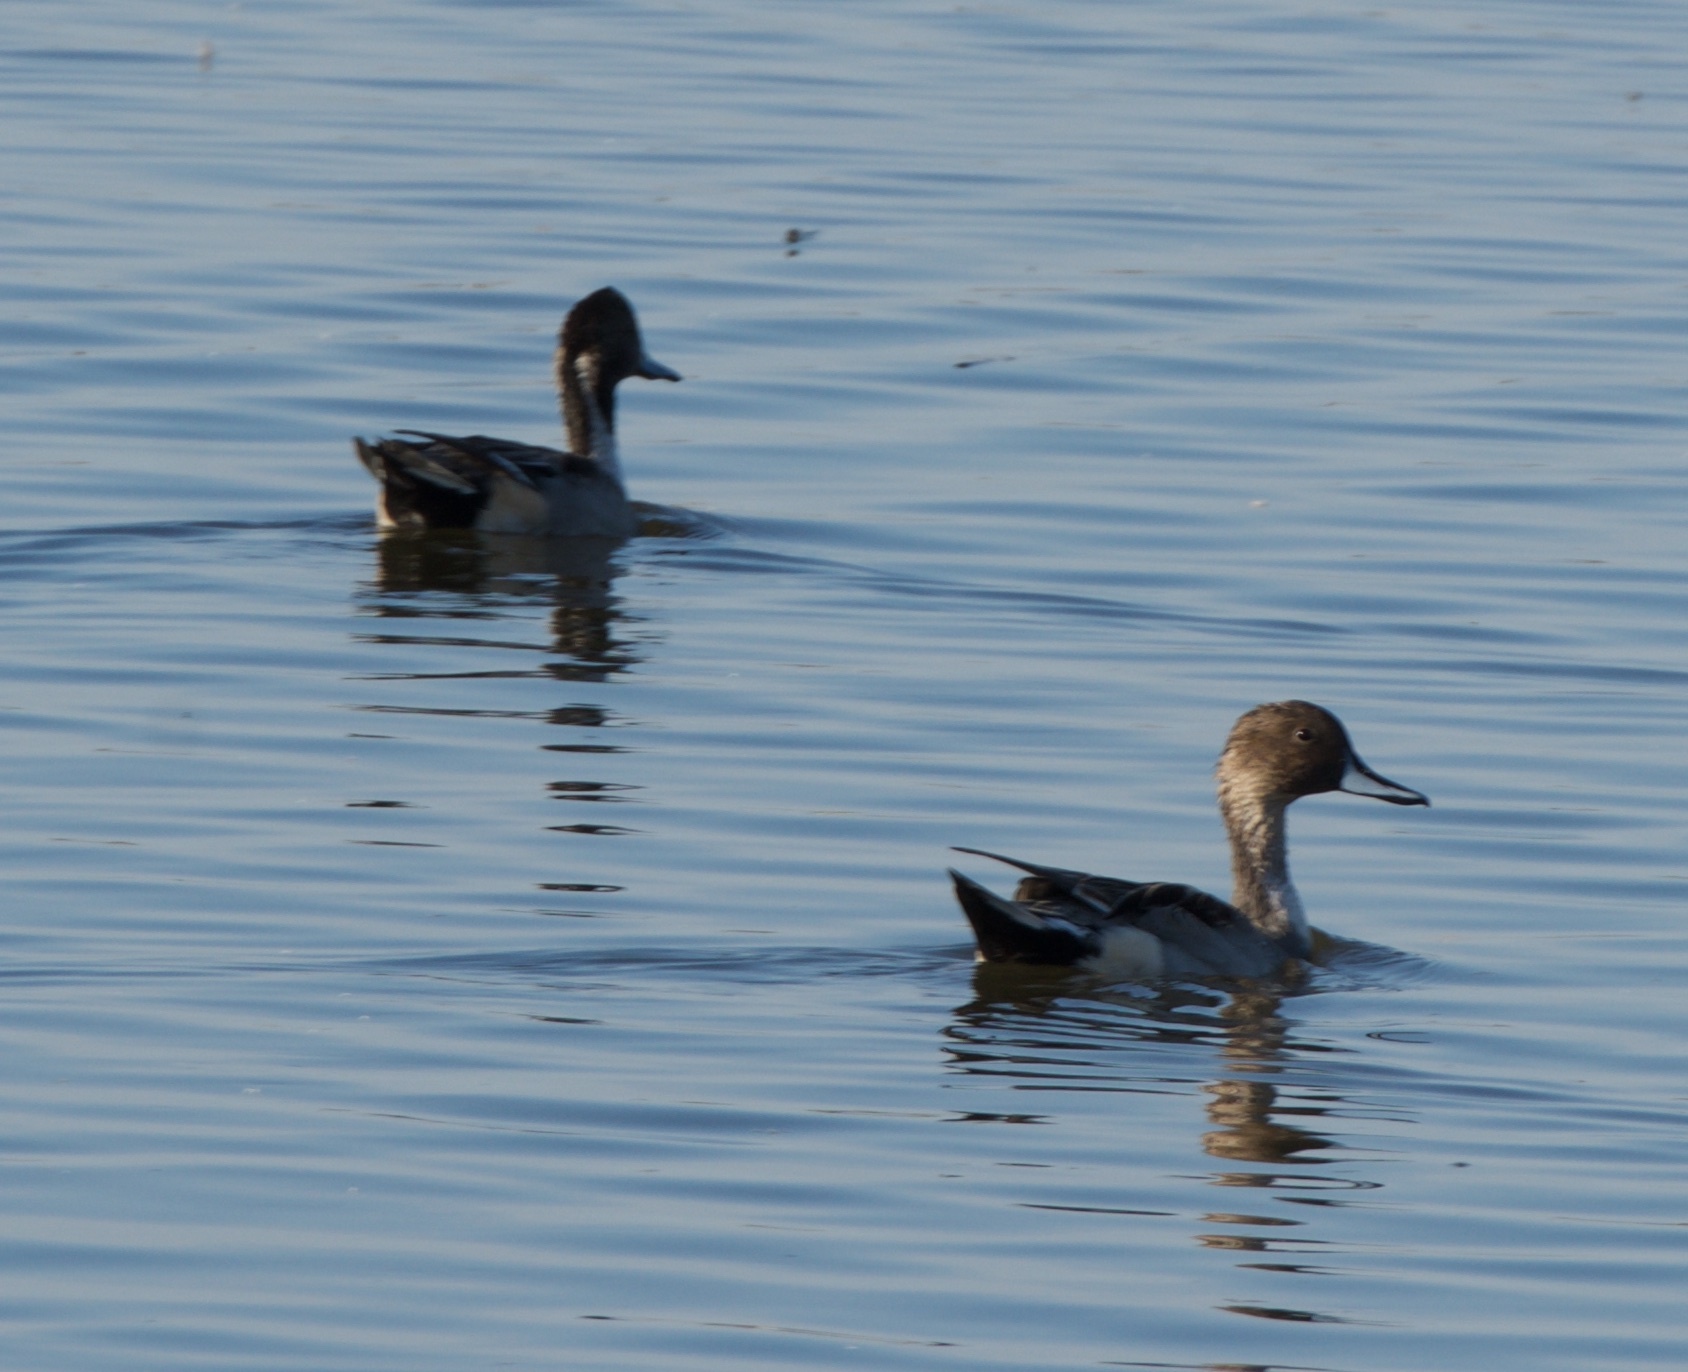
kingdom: Animalia
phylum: Chordata
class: Aves
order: Anseriformes
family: Anatidae
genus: Anas
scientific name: Anas acuta
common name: Northern pintail
